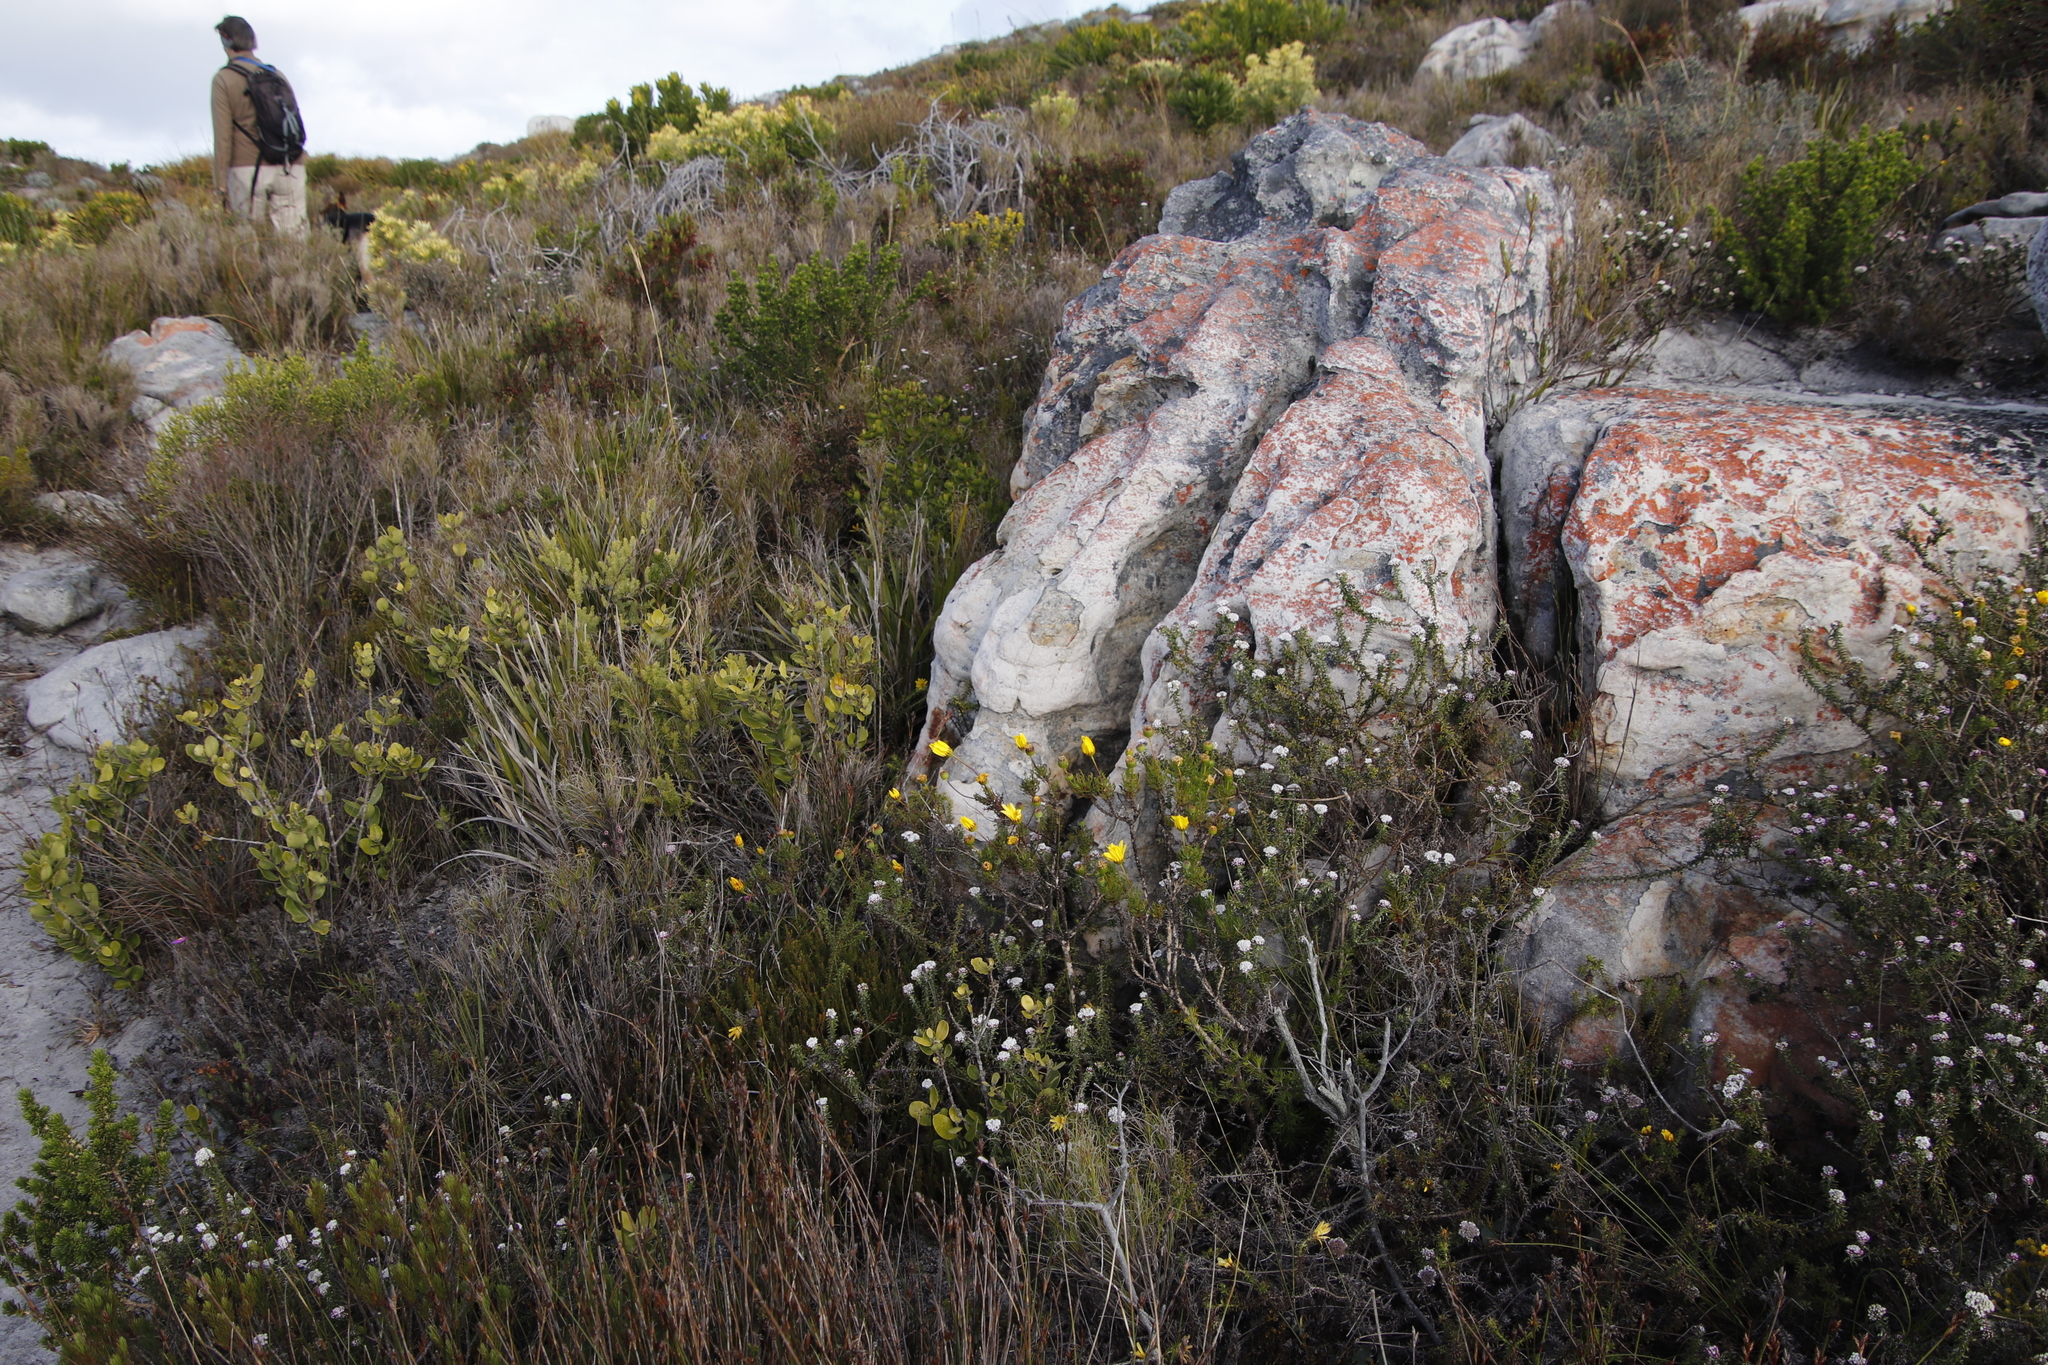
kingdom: Plantae
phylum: Tracheophyta
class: Magnoliopsida
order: Asterales
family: Asteraceae
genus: Euryops
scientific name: Euryops abrotanifolius
